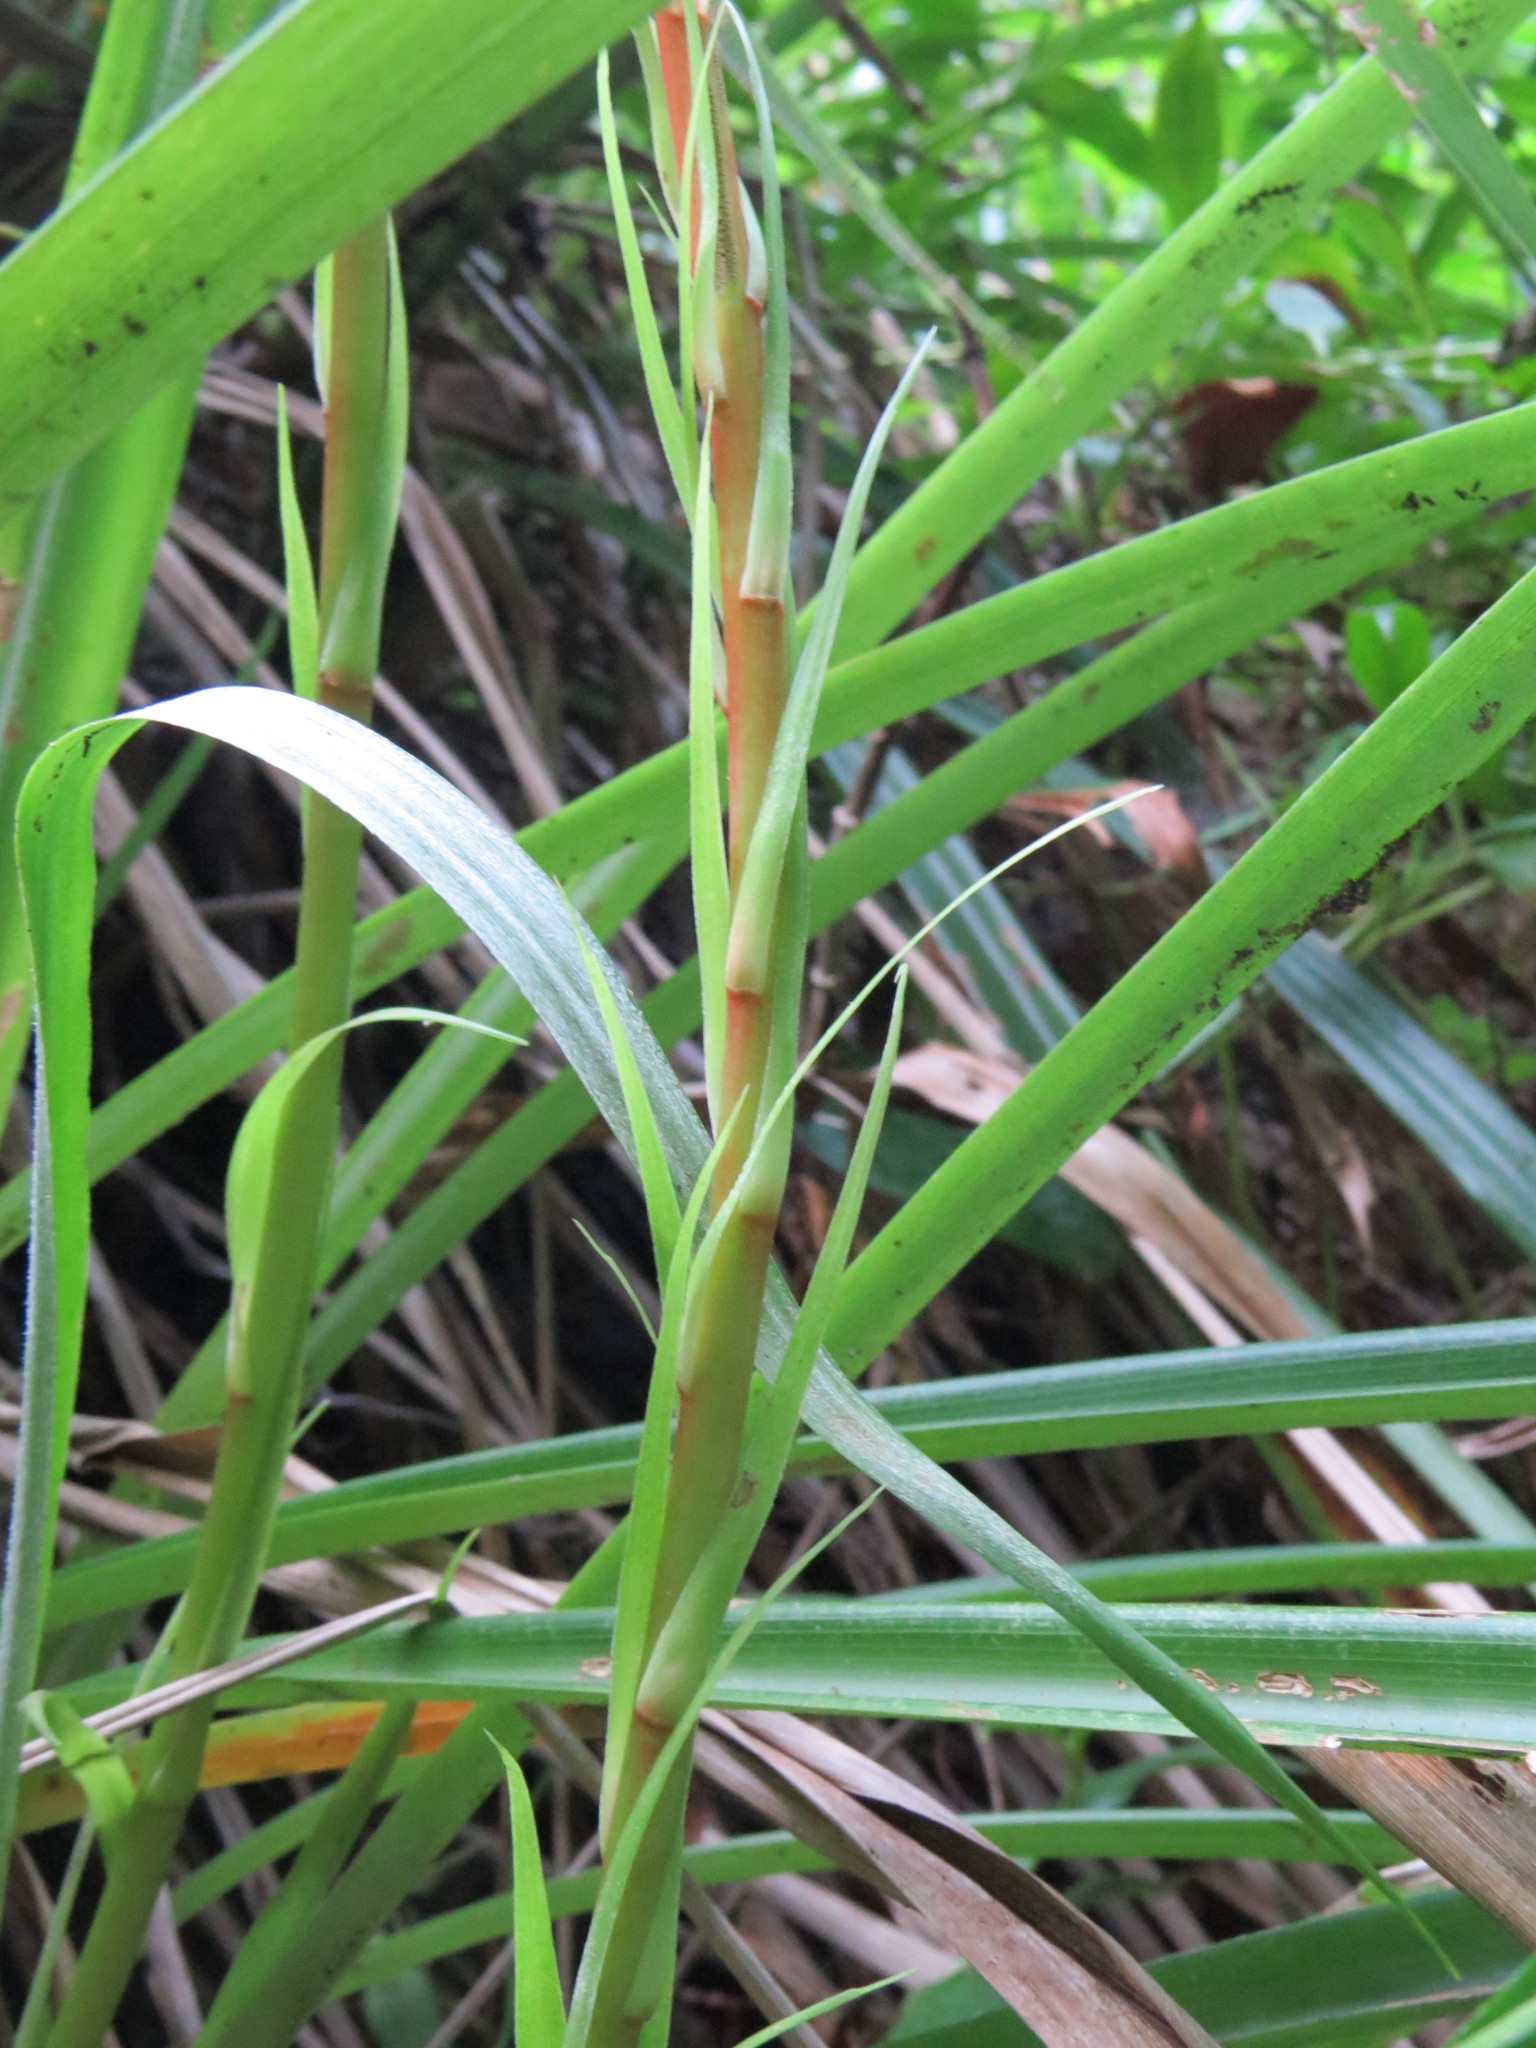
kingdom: Plantae
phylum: Tracheophyta
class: Liliopsida
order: Poales
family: Bromeliaceae
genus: Pitcairnia
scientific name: Pitcairnia flammea
